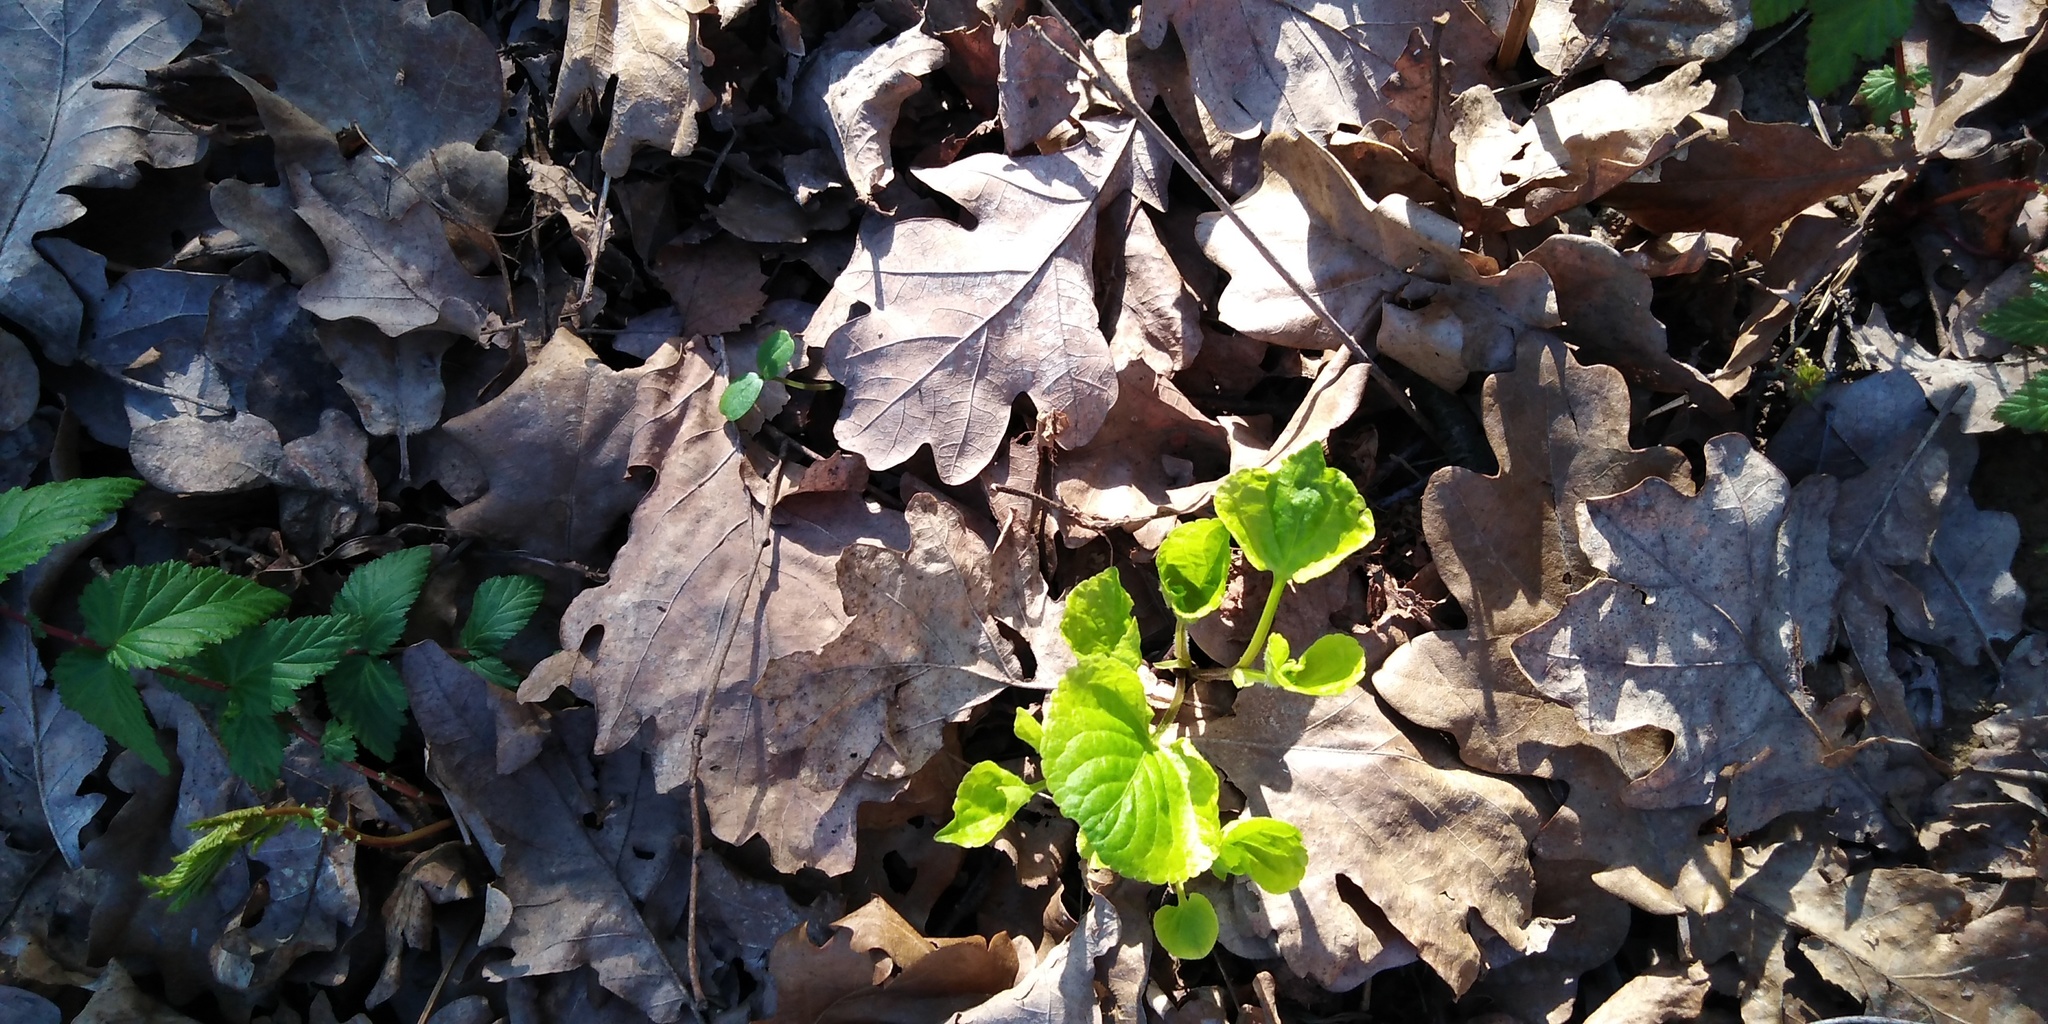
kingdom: Plantae
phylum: Tracheophyta
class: Magnoliopsida
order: Malpighiales
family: Violaceae
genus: Viola
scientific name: Viola mirabilis
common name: Wonder violet
